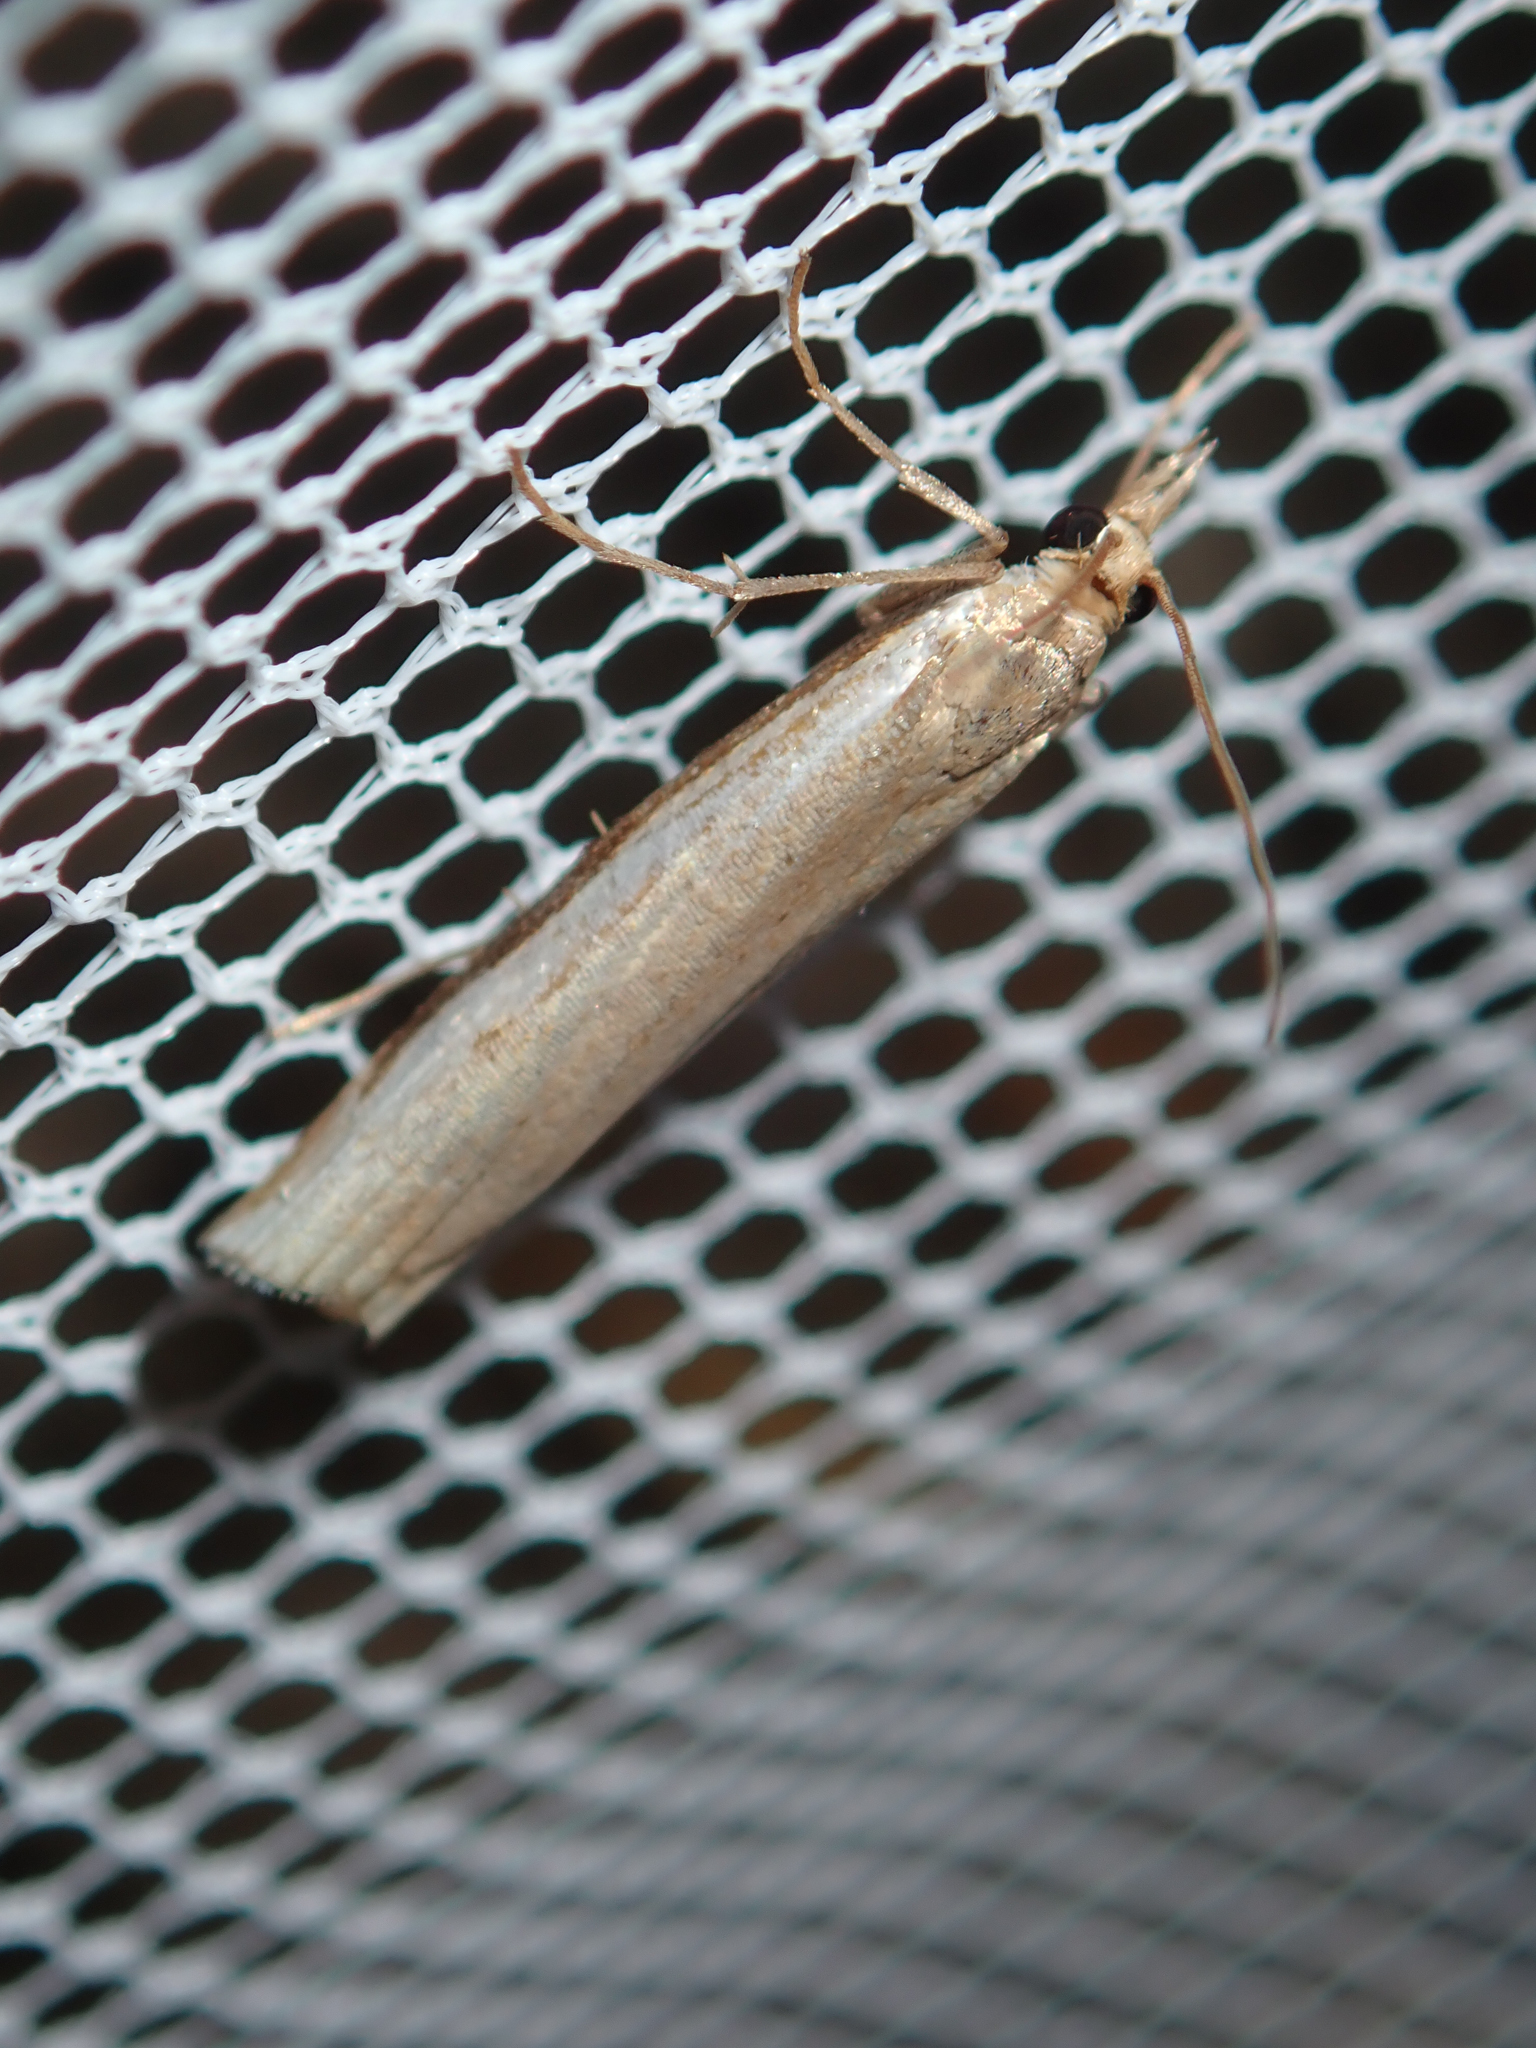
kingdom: Animalia
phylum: Arthropoda
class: Insecta
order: Lepidoptera
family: Crambidae
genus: Orocrambus
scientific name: Orocrambus flexuosellus
